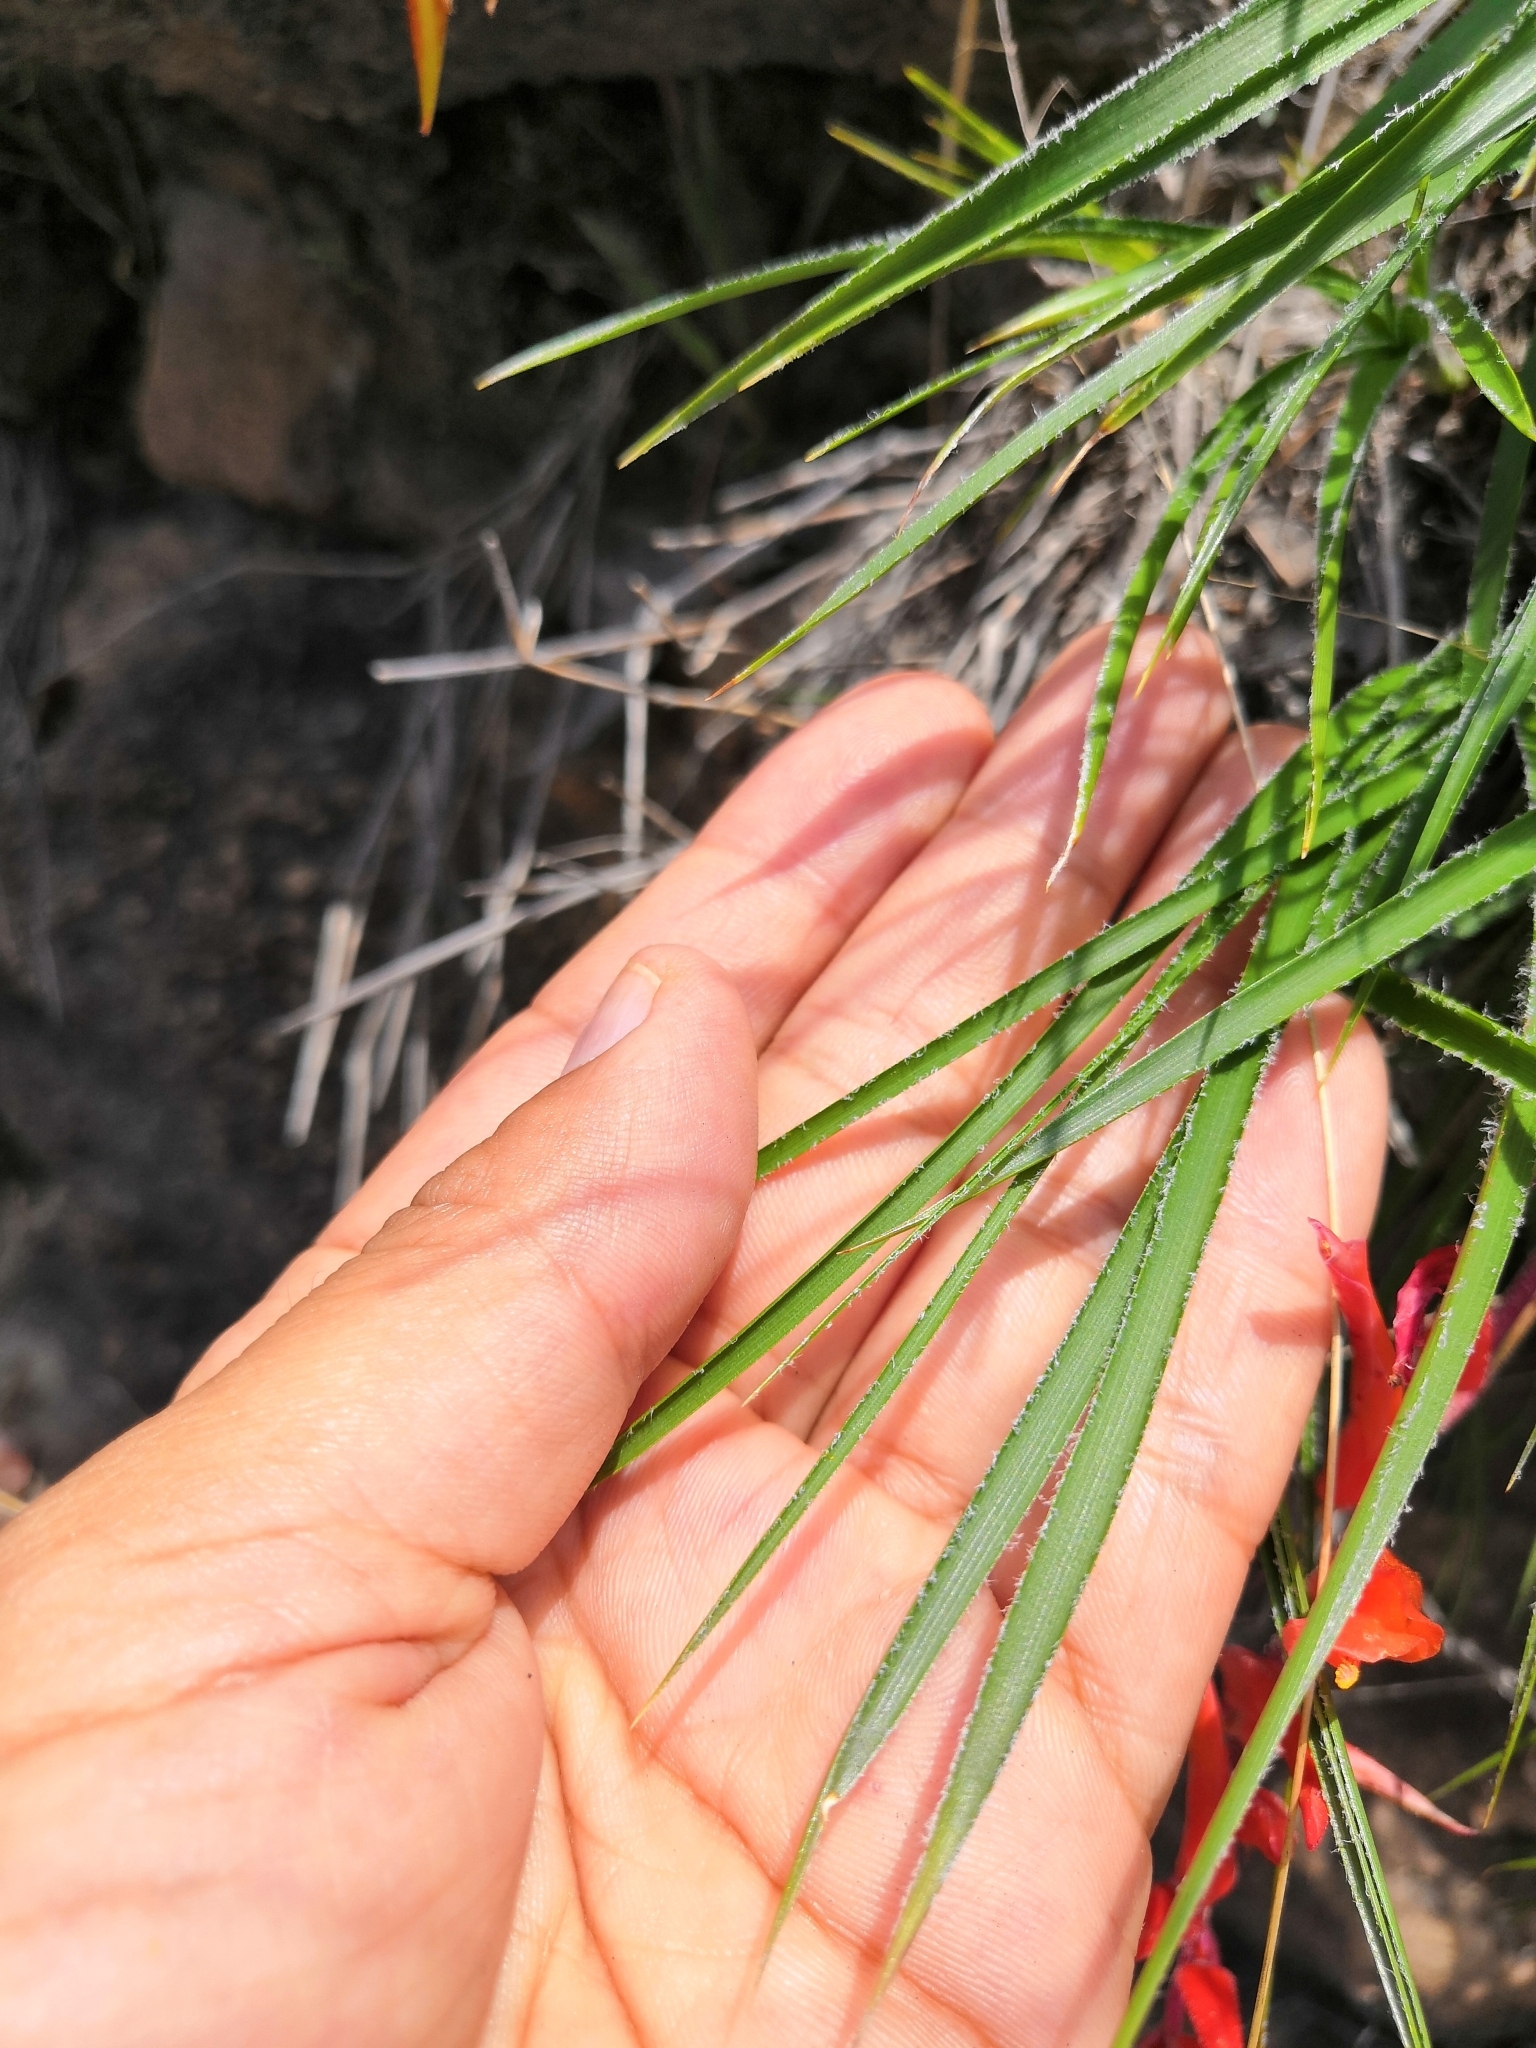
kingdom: Plantae
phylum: Tracheophyta
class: Liliopsida
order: Poales
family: Bromeliaceae
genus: Pitcairnia
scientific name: Pitcairnia palmeri
